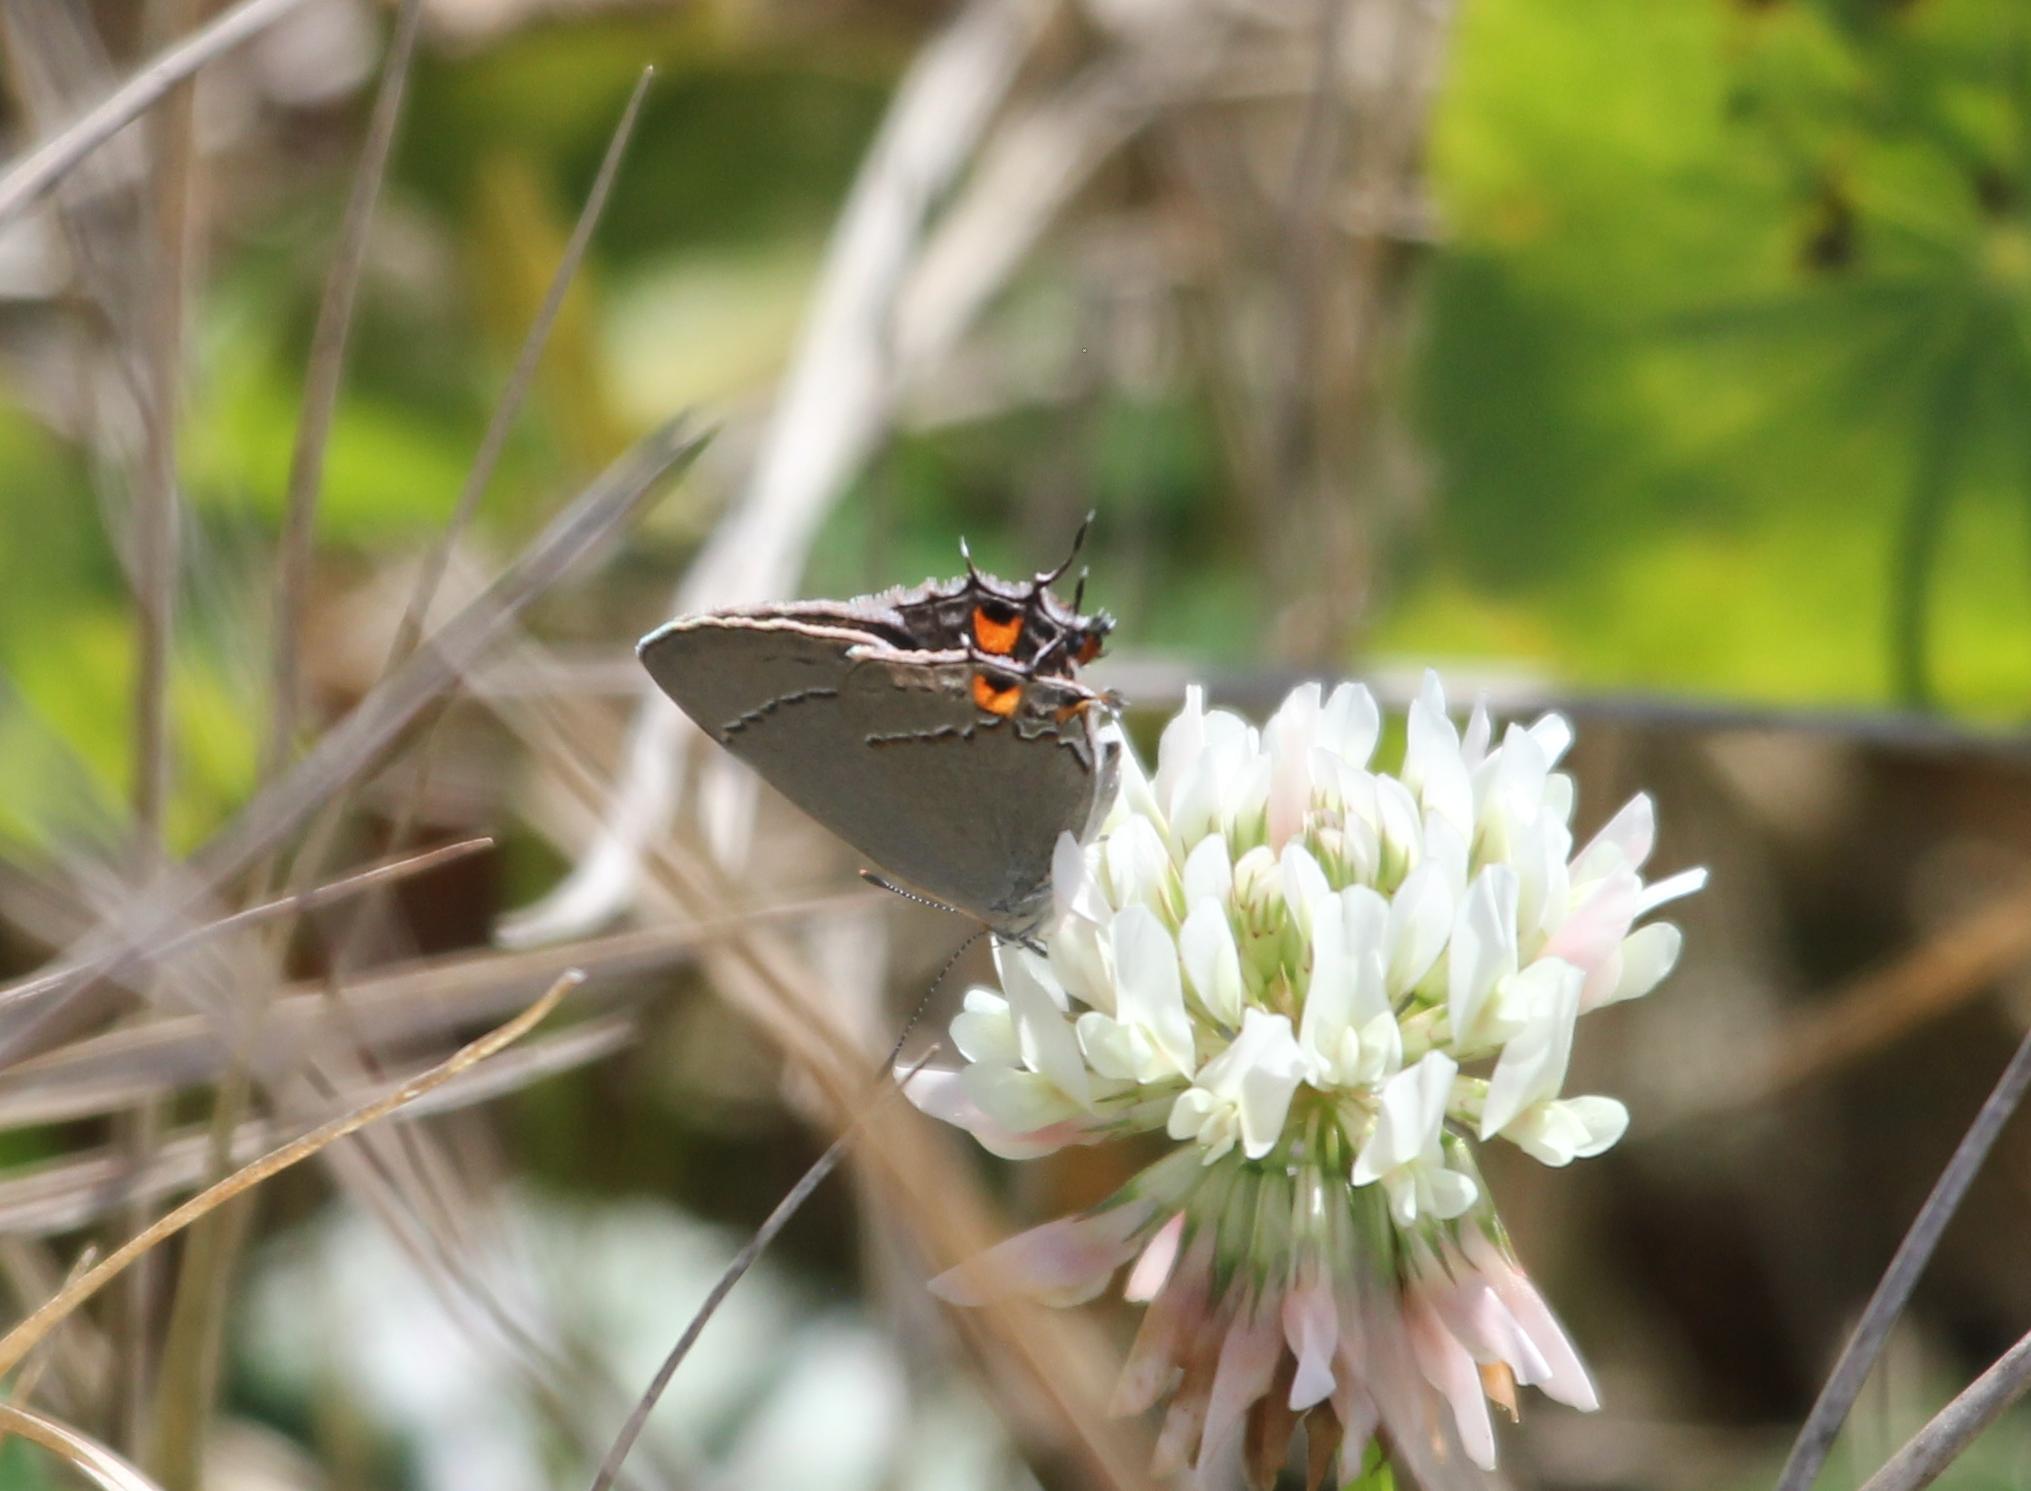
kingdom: Animalia
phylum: Arthropoda
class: Insecta
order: Lepidoptera
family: Lycaenidae
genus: Strymon
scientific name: Strymon melinus
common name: Gray hairstreak
